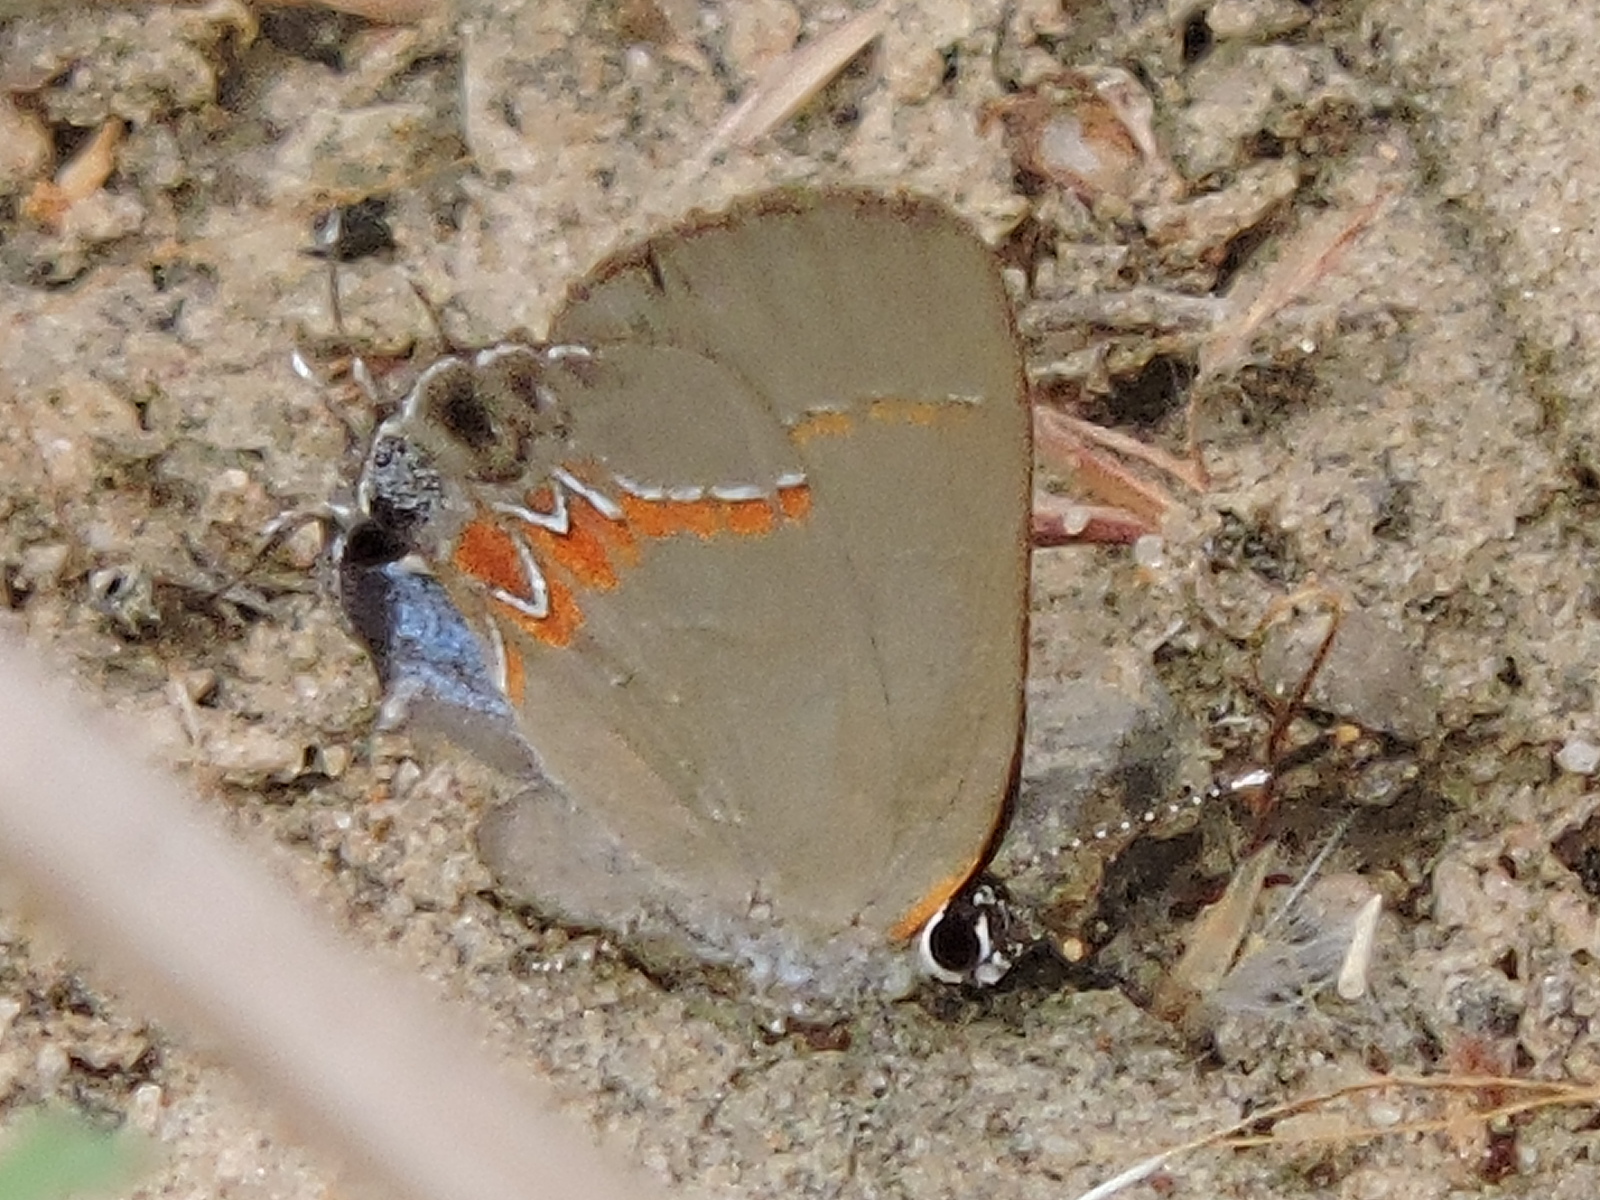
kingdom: Animalia
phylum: Arthropoda
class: Insecta
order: Lepidoptera
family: Lycaenidae
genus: Calycopis
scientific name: Calycopis cecrops
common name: Red-banded hairstreak
